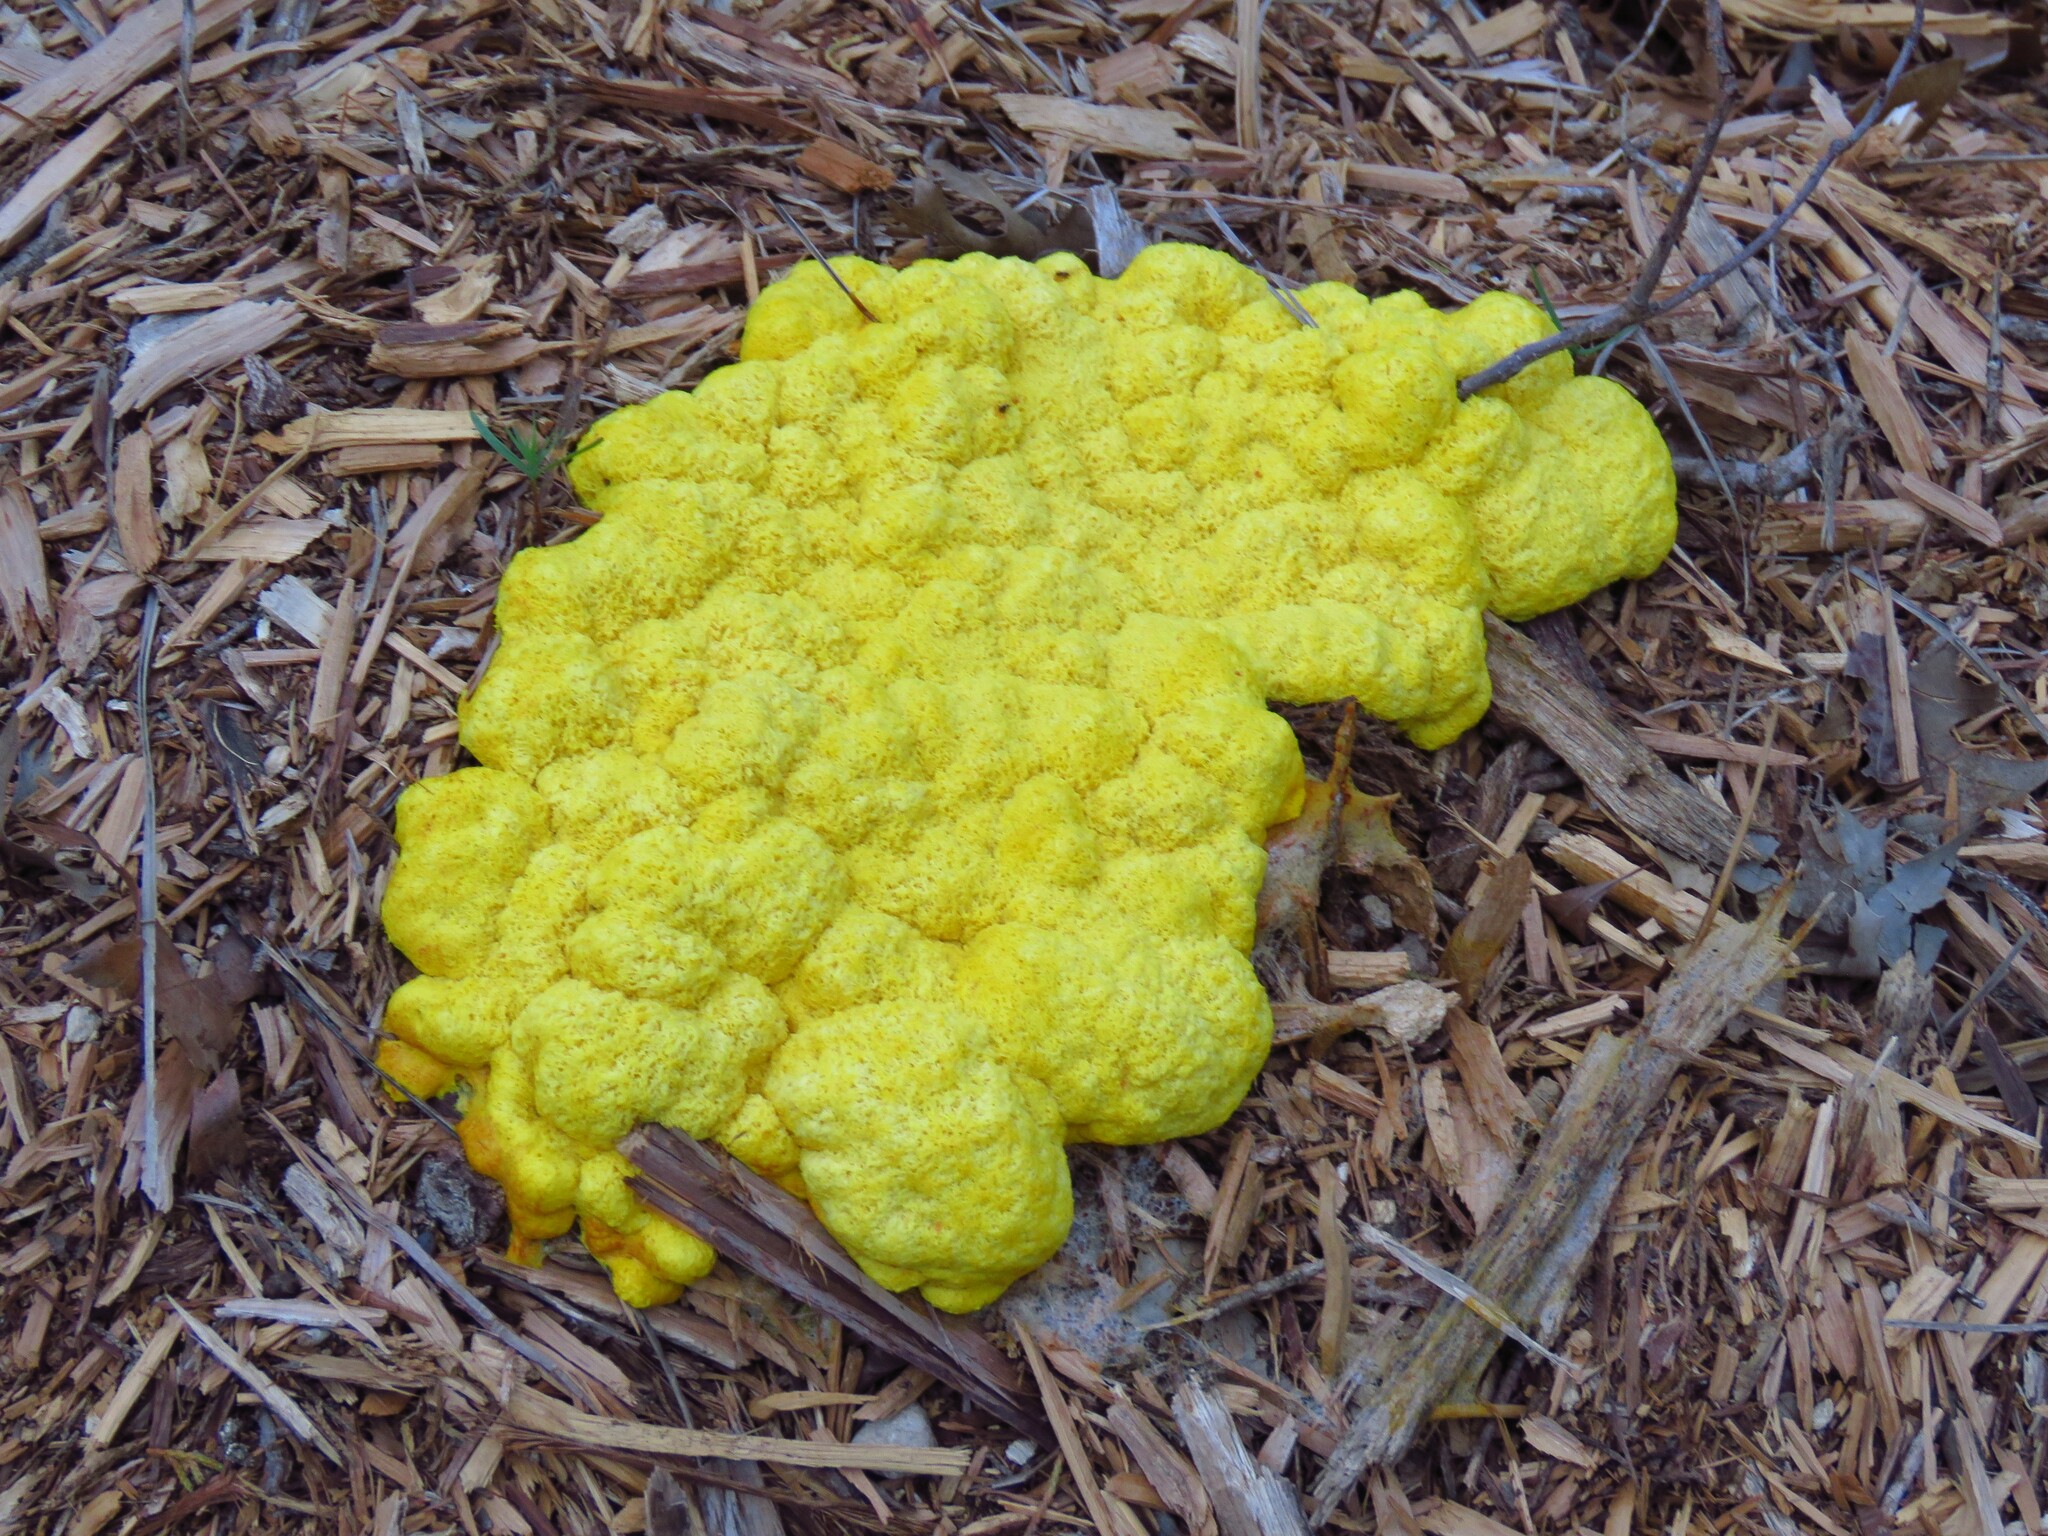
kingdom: Protozoa
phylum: Mycetozoa
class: Myxomycetes
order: Physarales
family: Physaraceae
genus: Fuligo
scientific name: Fuligo septica
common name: Dog vomit slime mold
